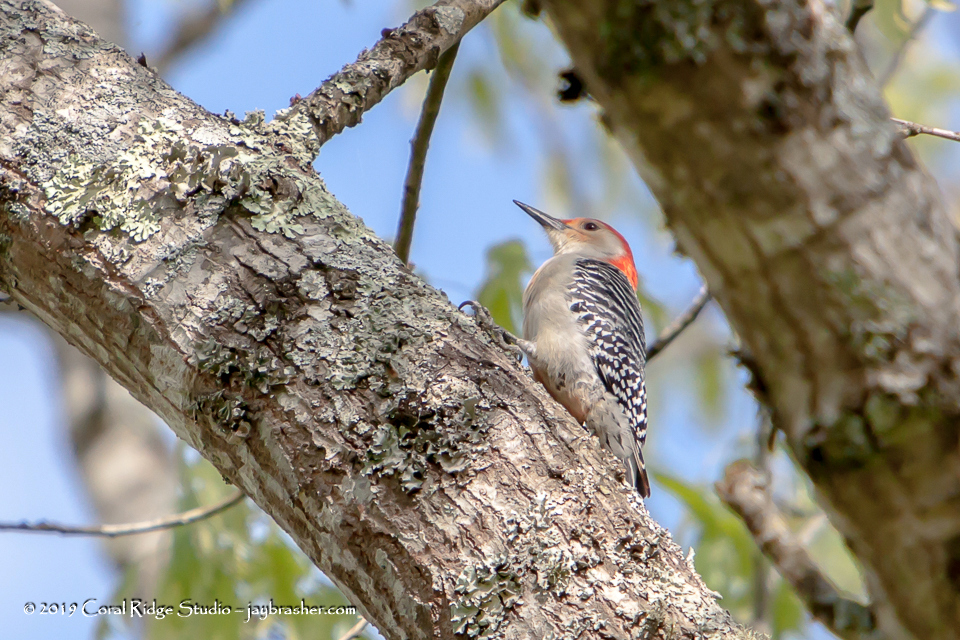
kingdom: Animalia
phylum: Chordata
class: Aves
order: Piciformes
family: Picidae
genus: Melanerpes
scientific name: Melanerpes carolinus
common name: Red-bellied woodpecker
